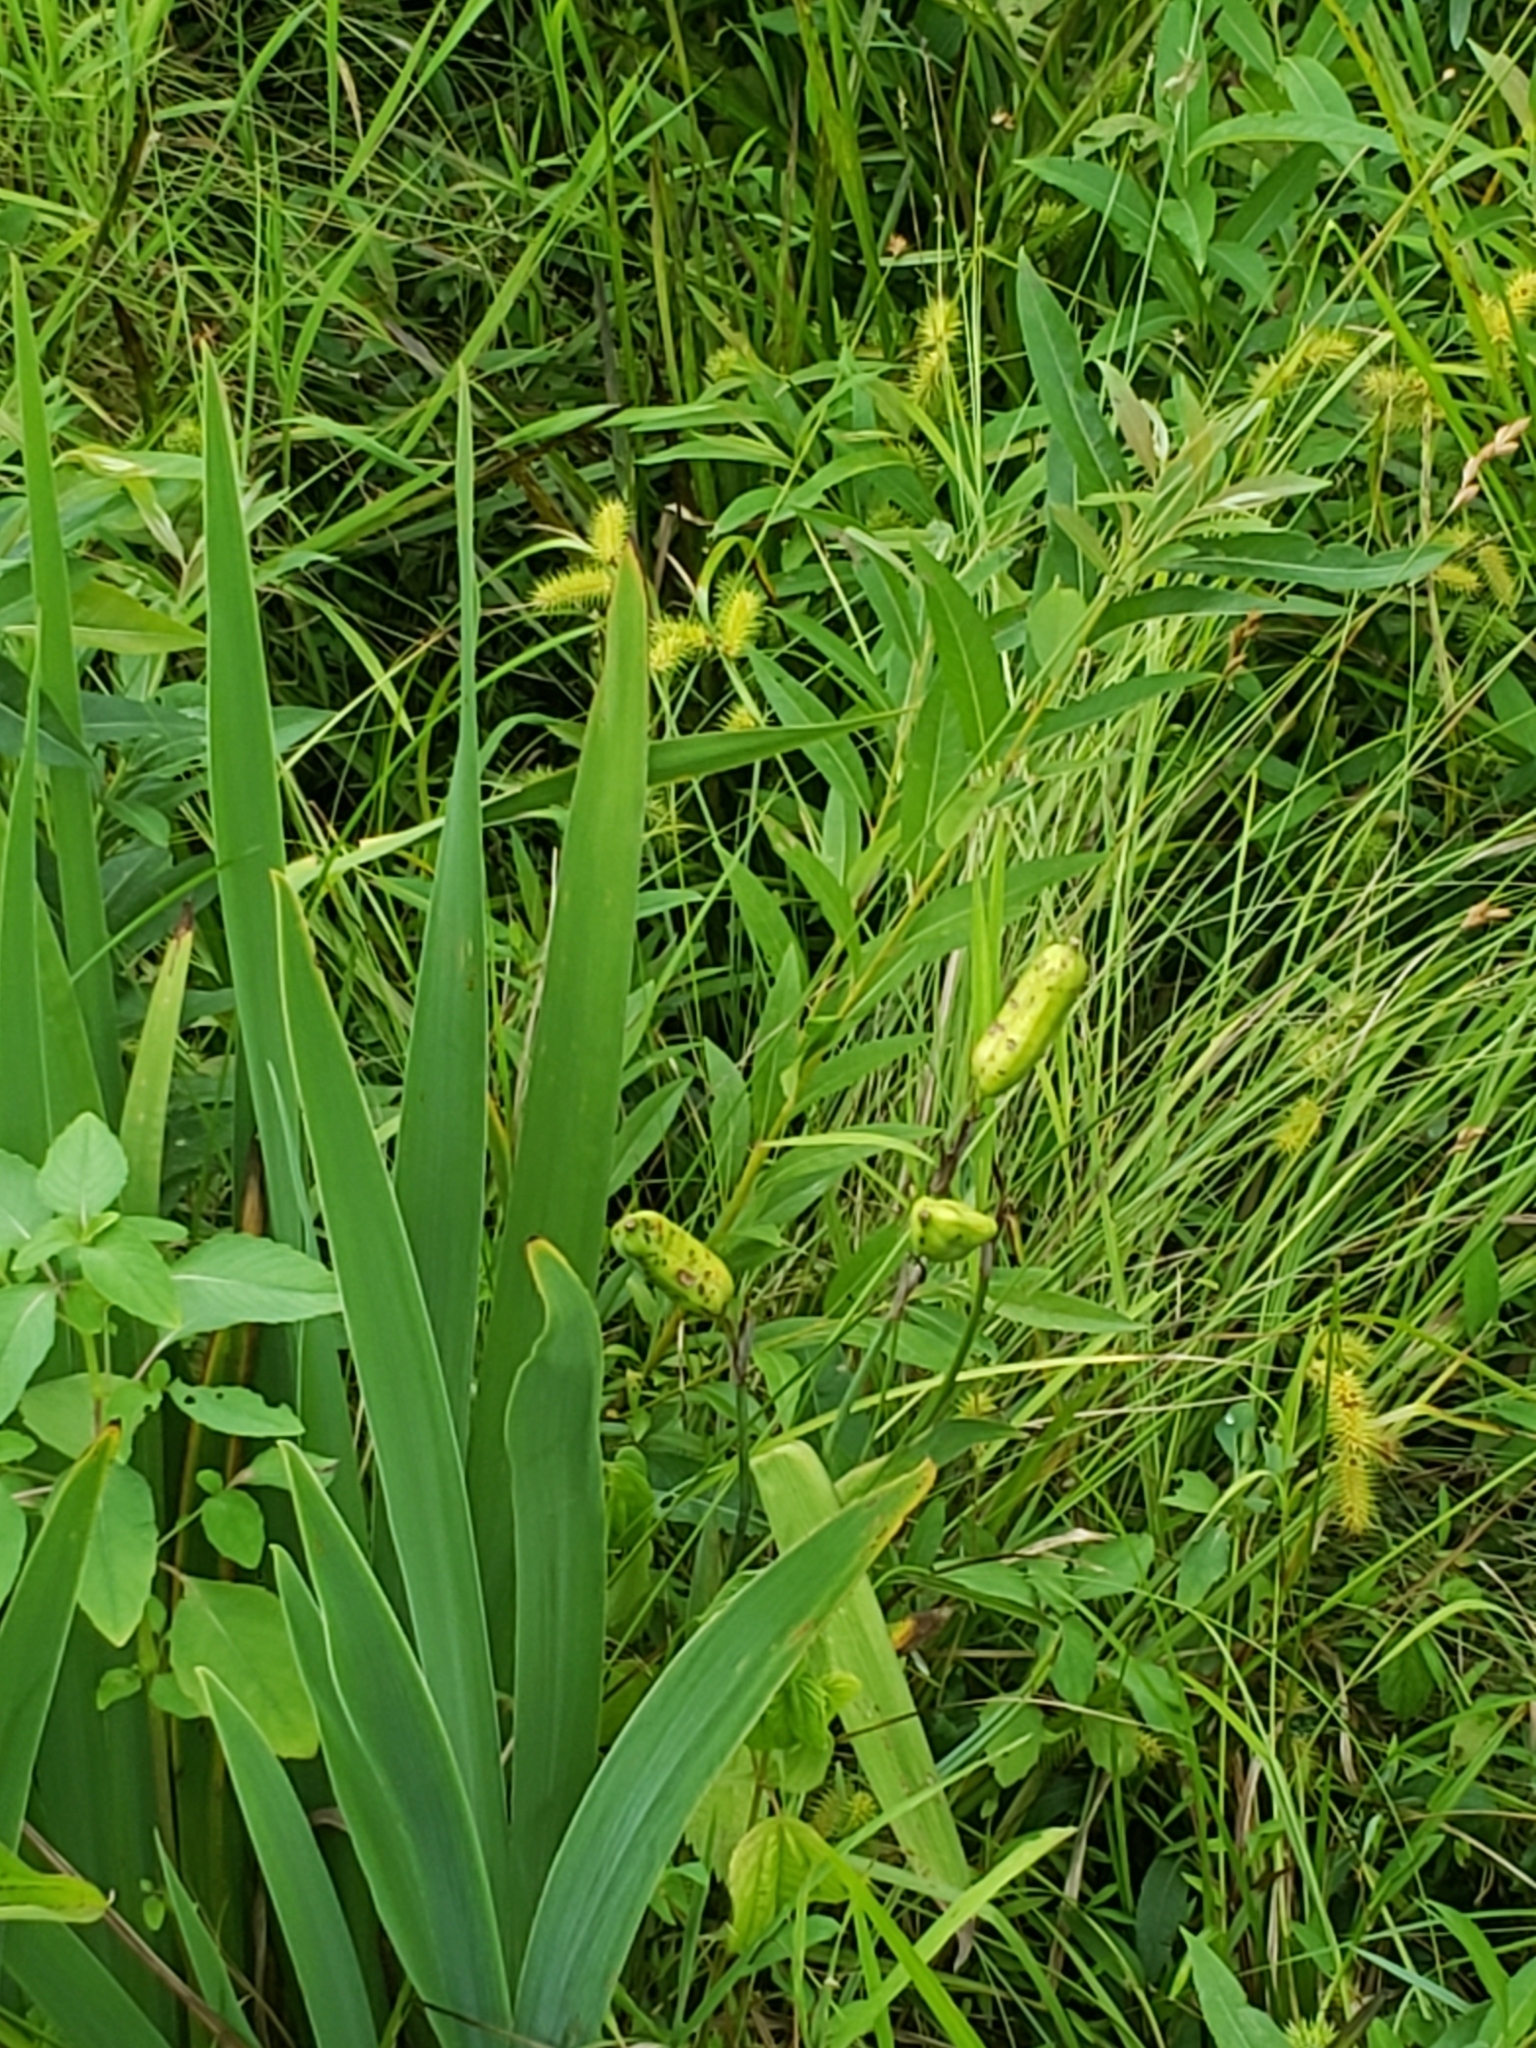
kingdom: Plantae
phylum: Tracheophyta
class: Liliopsida
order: Asparagales
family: Iridaceae
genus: Iris
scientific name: Iris versicolor
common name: Purple iris
